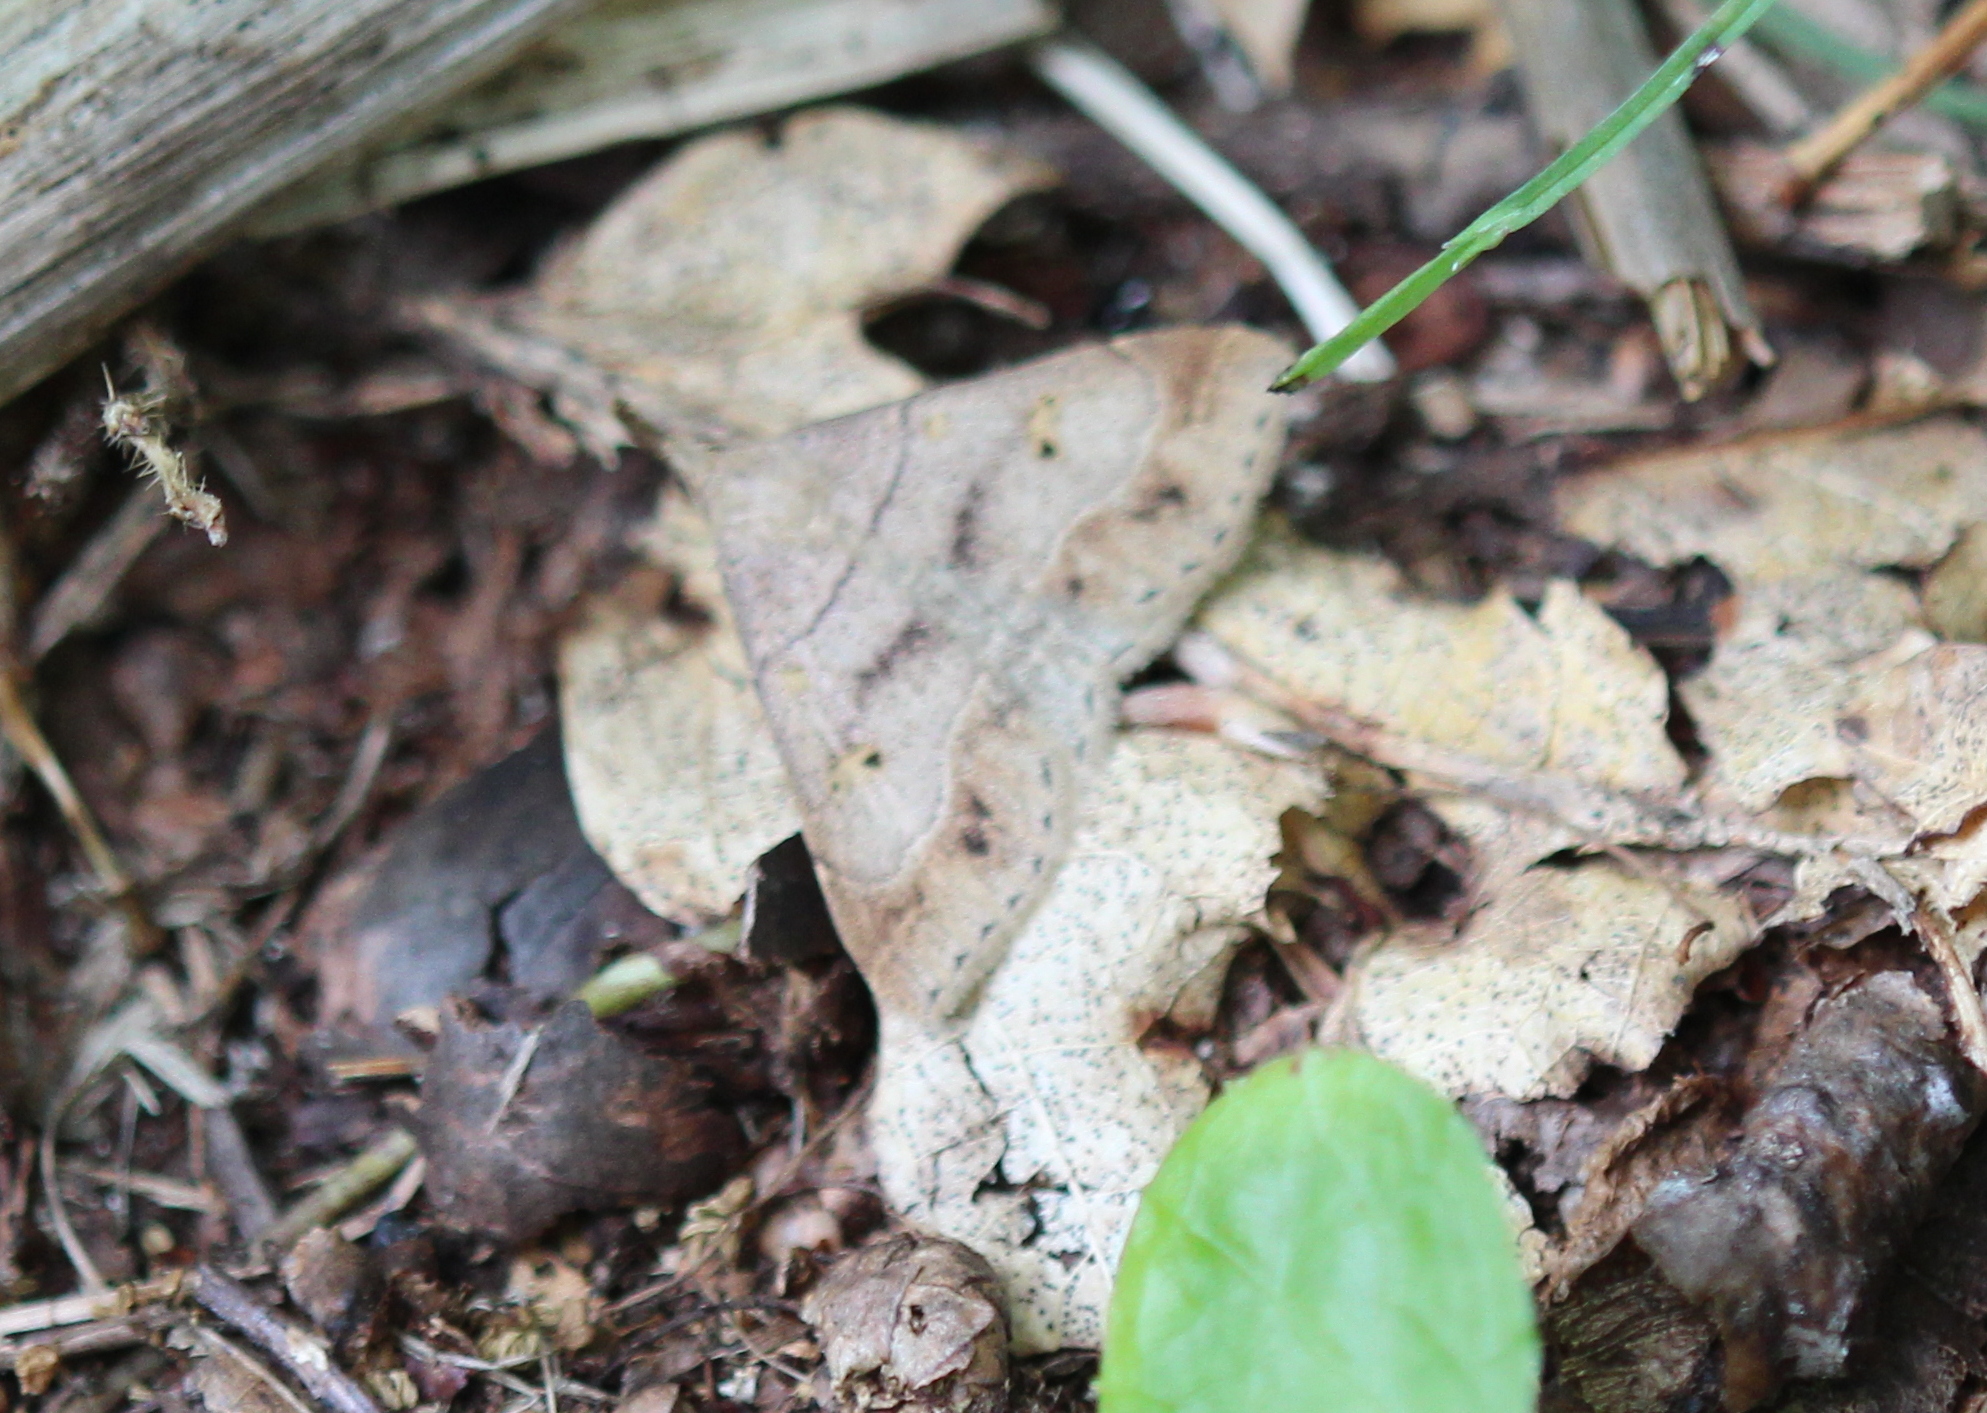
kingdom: Animalia
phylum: Arthropoda
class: Insecta
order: Lepidoptera
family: Erebidae
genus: Renia
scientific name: Renia flavipunctalis
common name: Yellow-spotted renia moth
